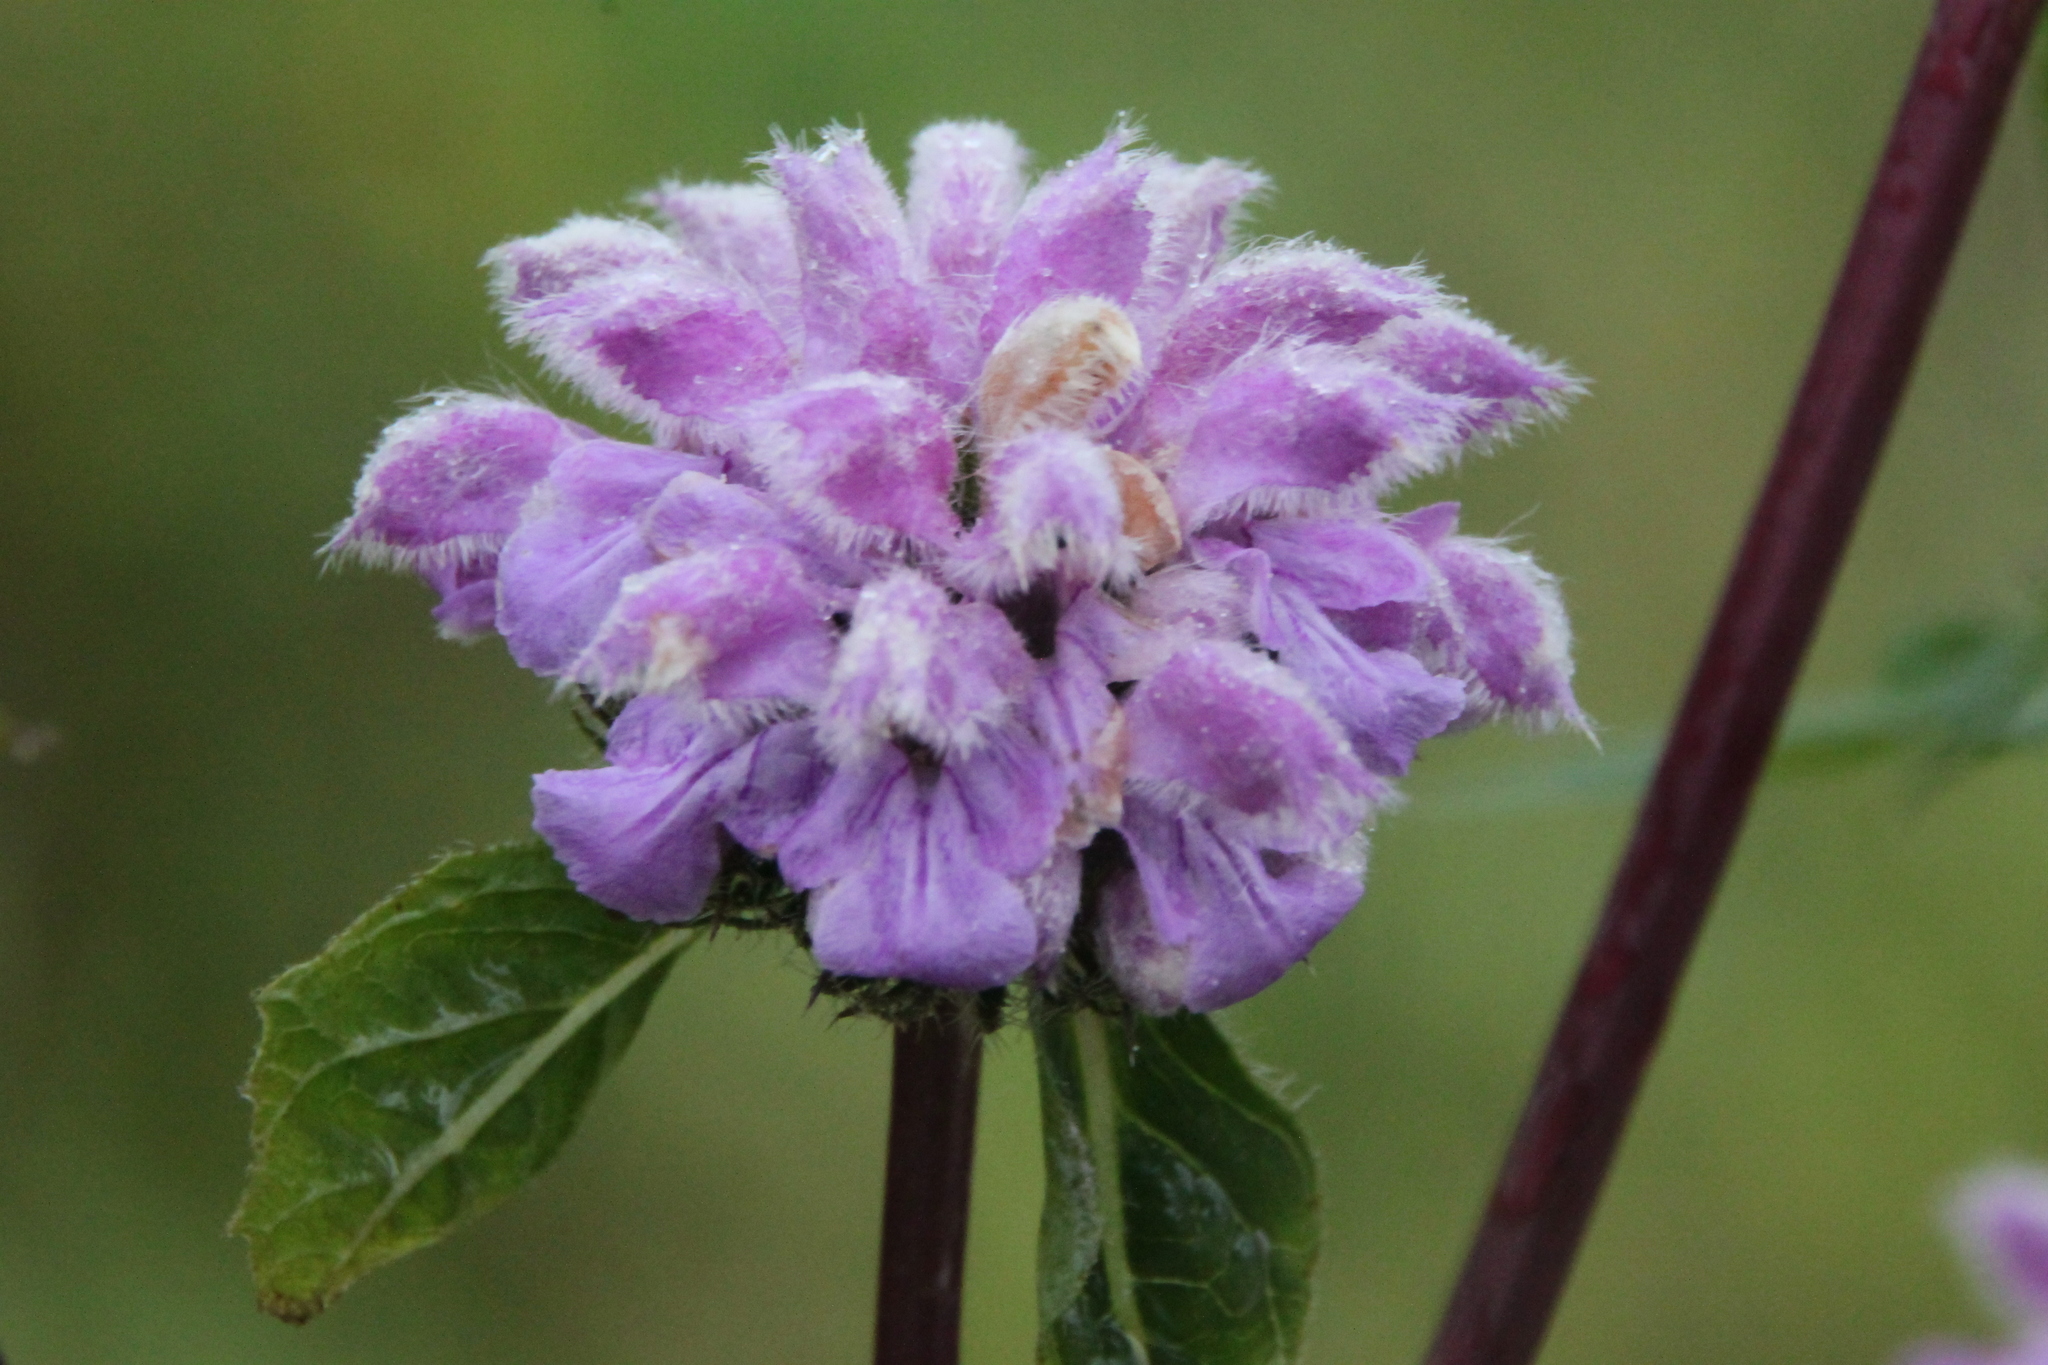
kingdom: Plantae
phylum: Tracheophyta
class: Magnoliopsida
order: Lamiales
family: Lamiaceae
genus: Phlomoides
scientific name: Phlomoides tuberosa
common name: Tuberous jerusalem sage
